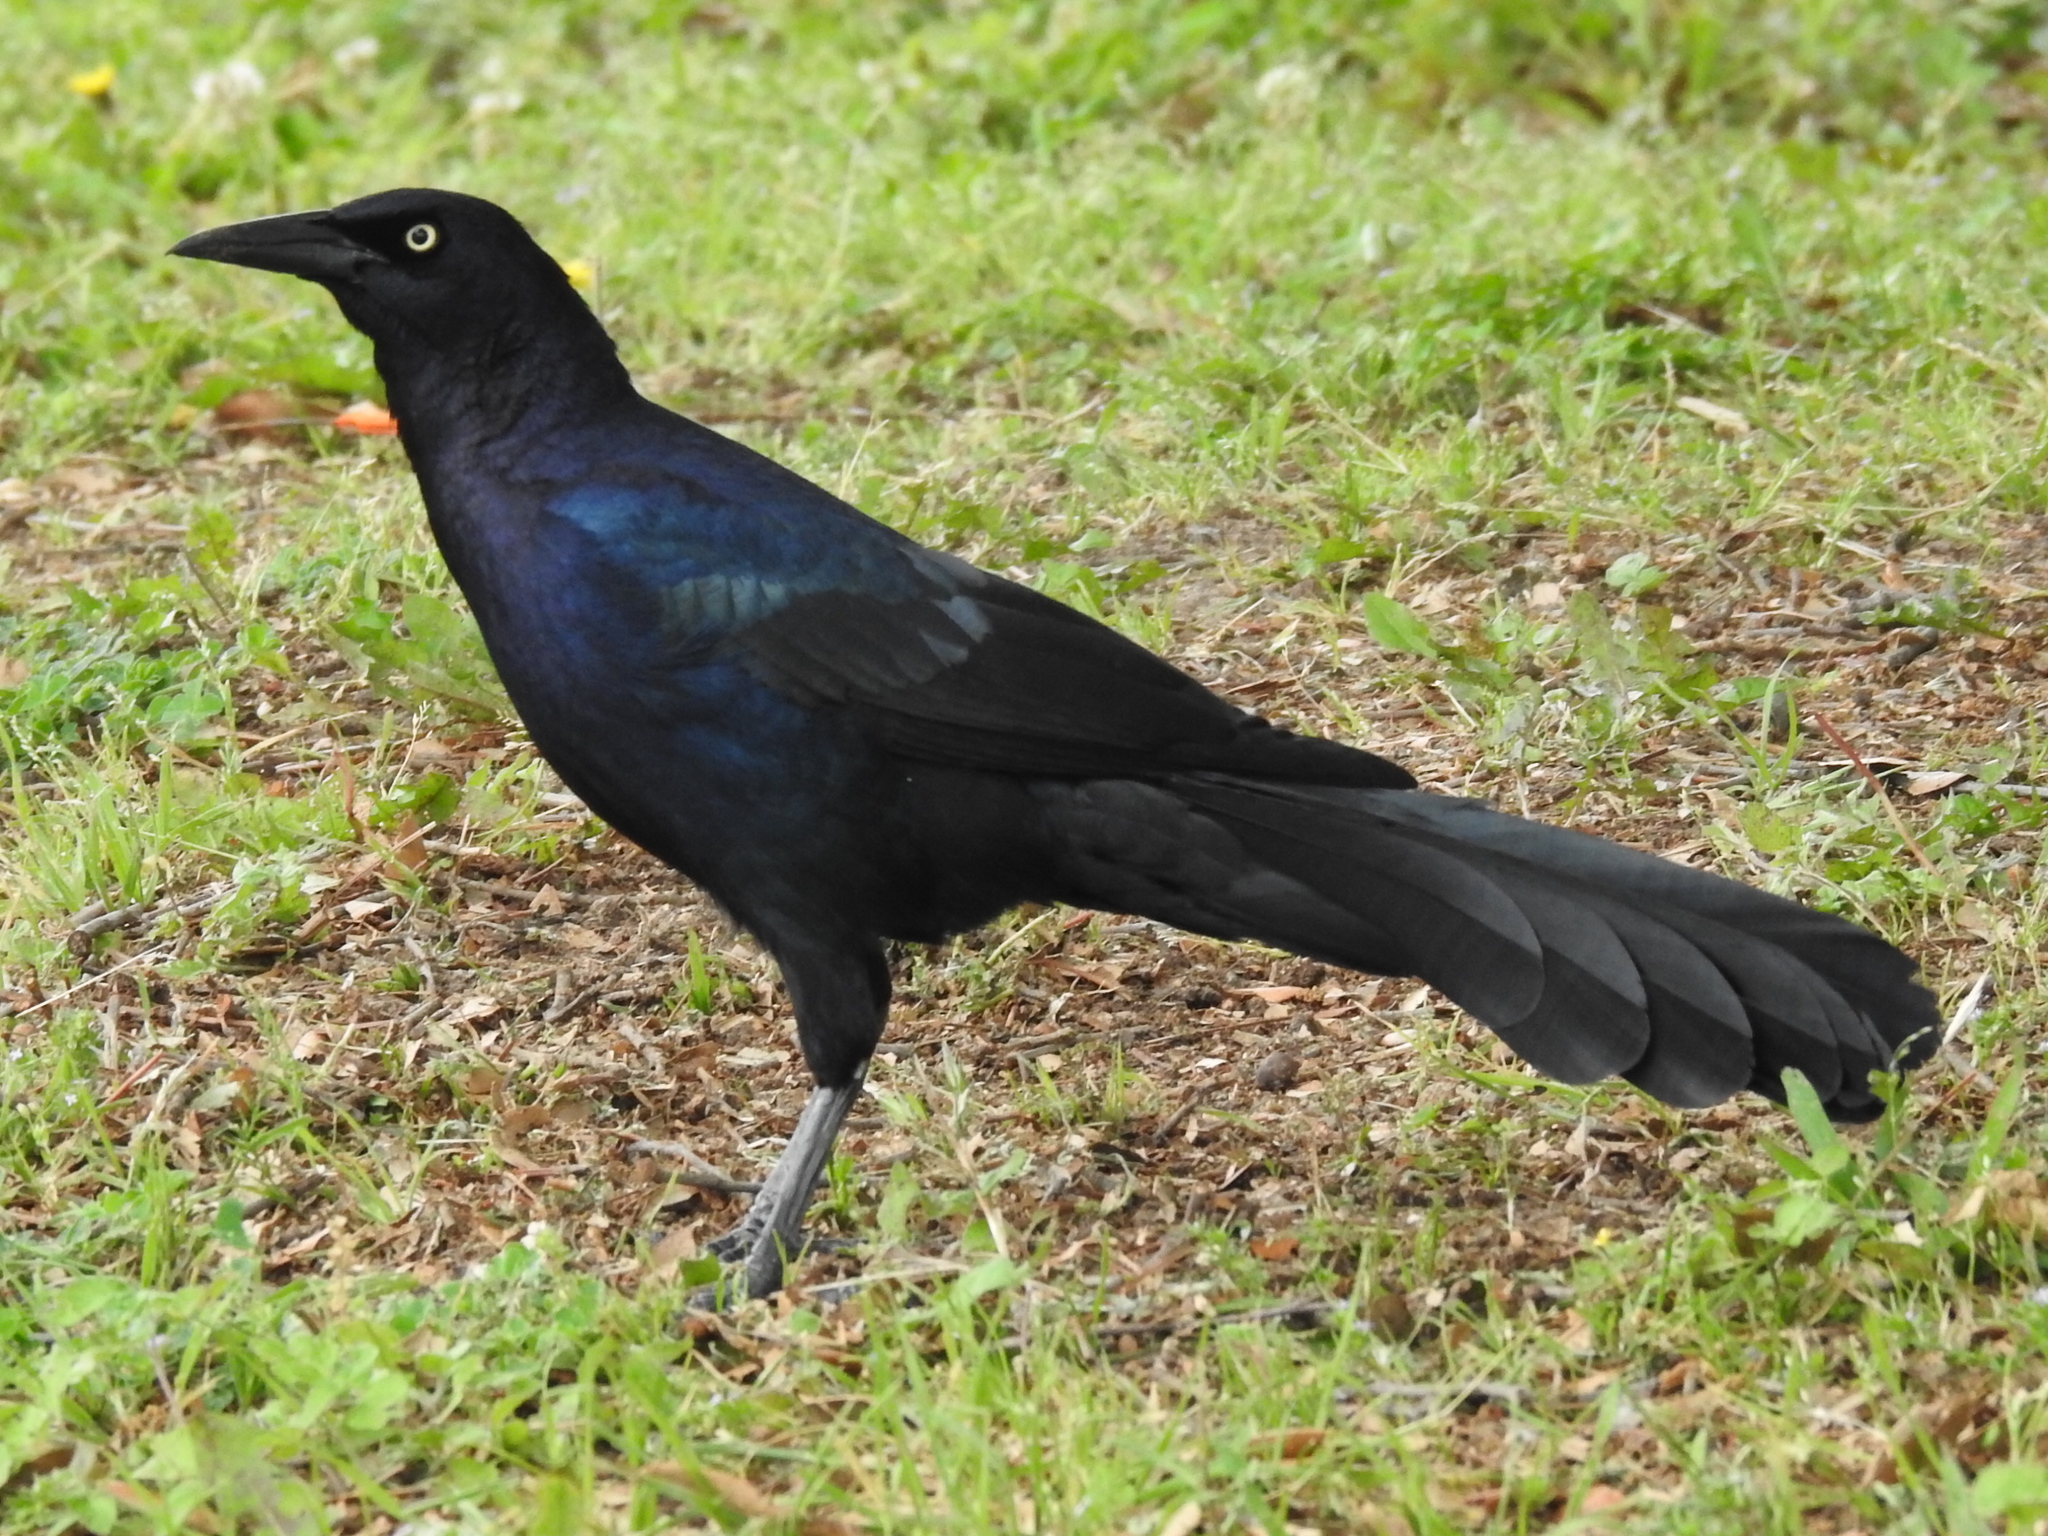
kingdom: Animalia
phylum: Chordata
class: Aves
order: Passeriformes
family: Icteridae
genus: Quiscalus
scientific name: Quiscalus mexicanus
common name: Great-tailed grackle
